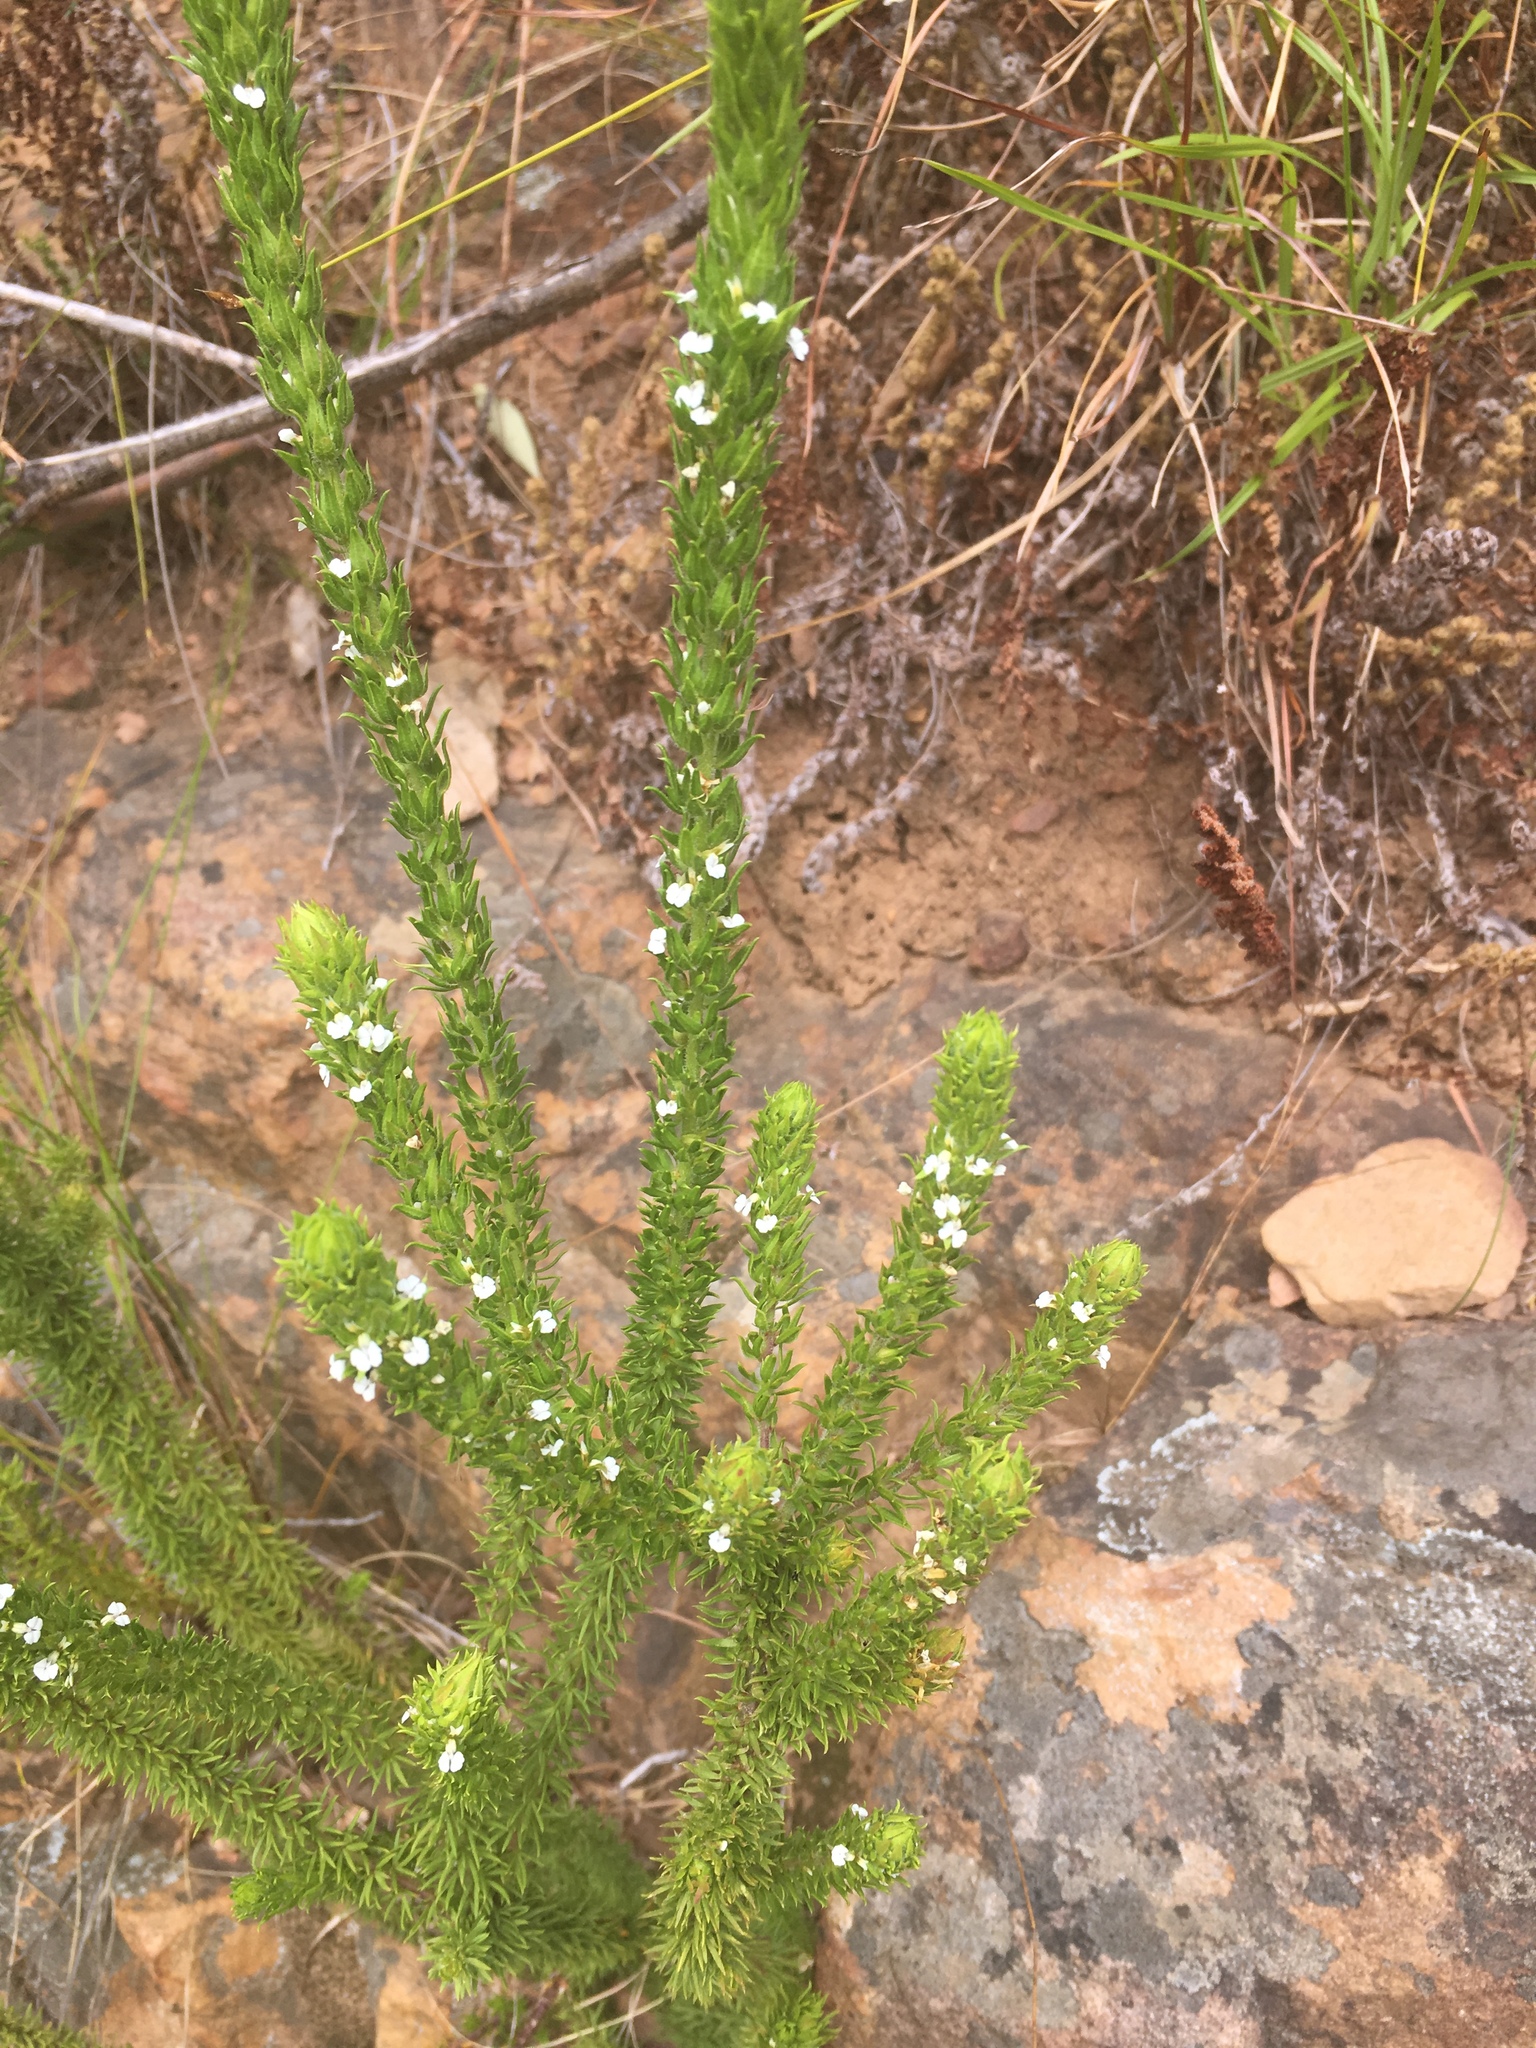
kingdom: Plantae
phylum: Tracheophyta
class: Magnoliopsida
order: Fabales
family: Polygalaceae
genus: Muraltia
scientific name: Muraltia alba
